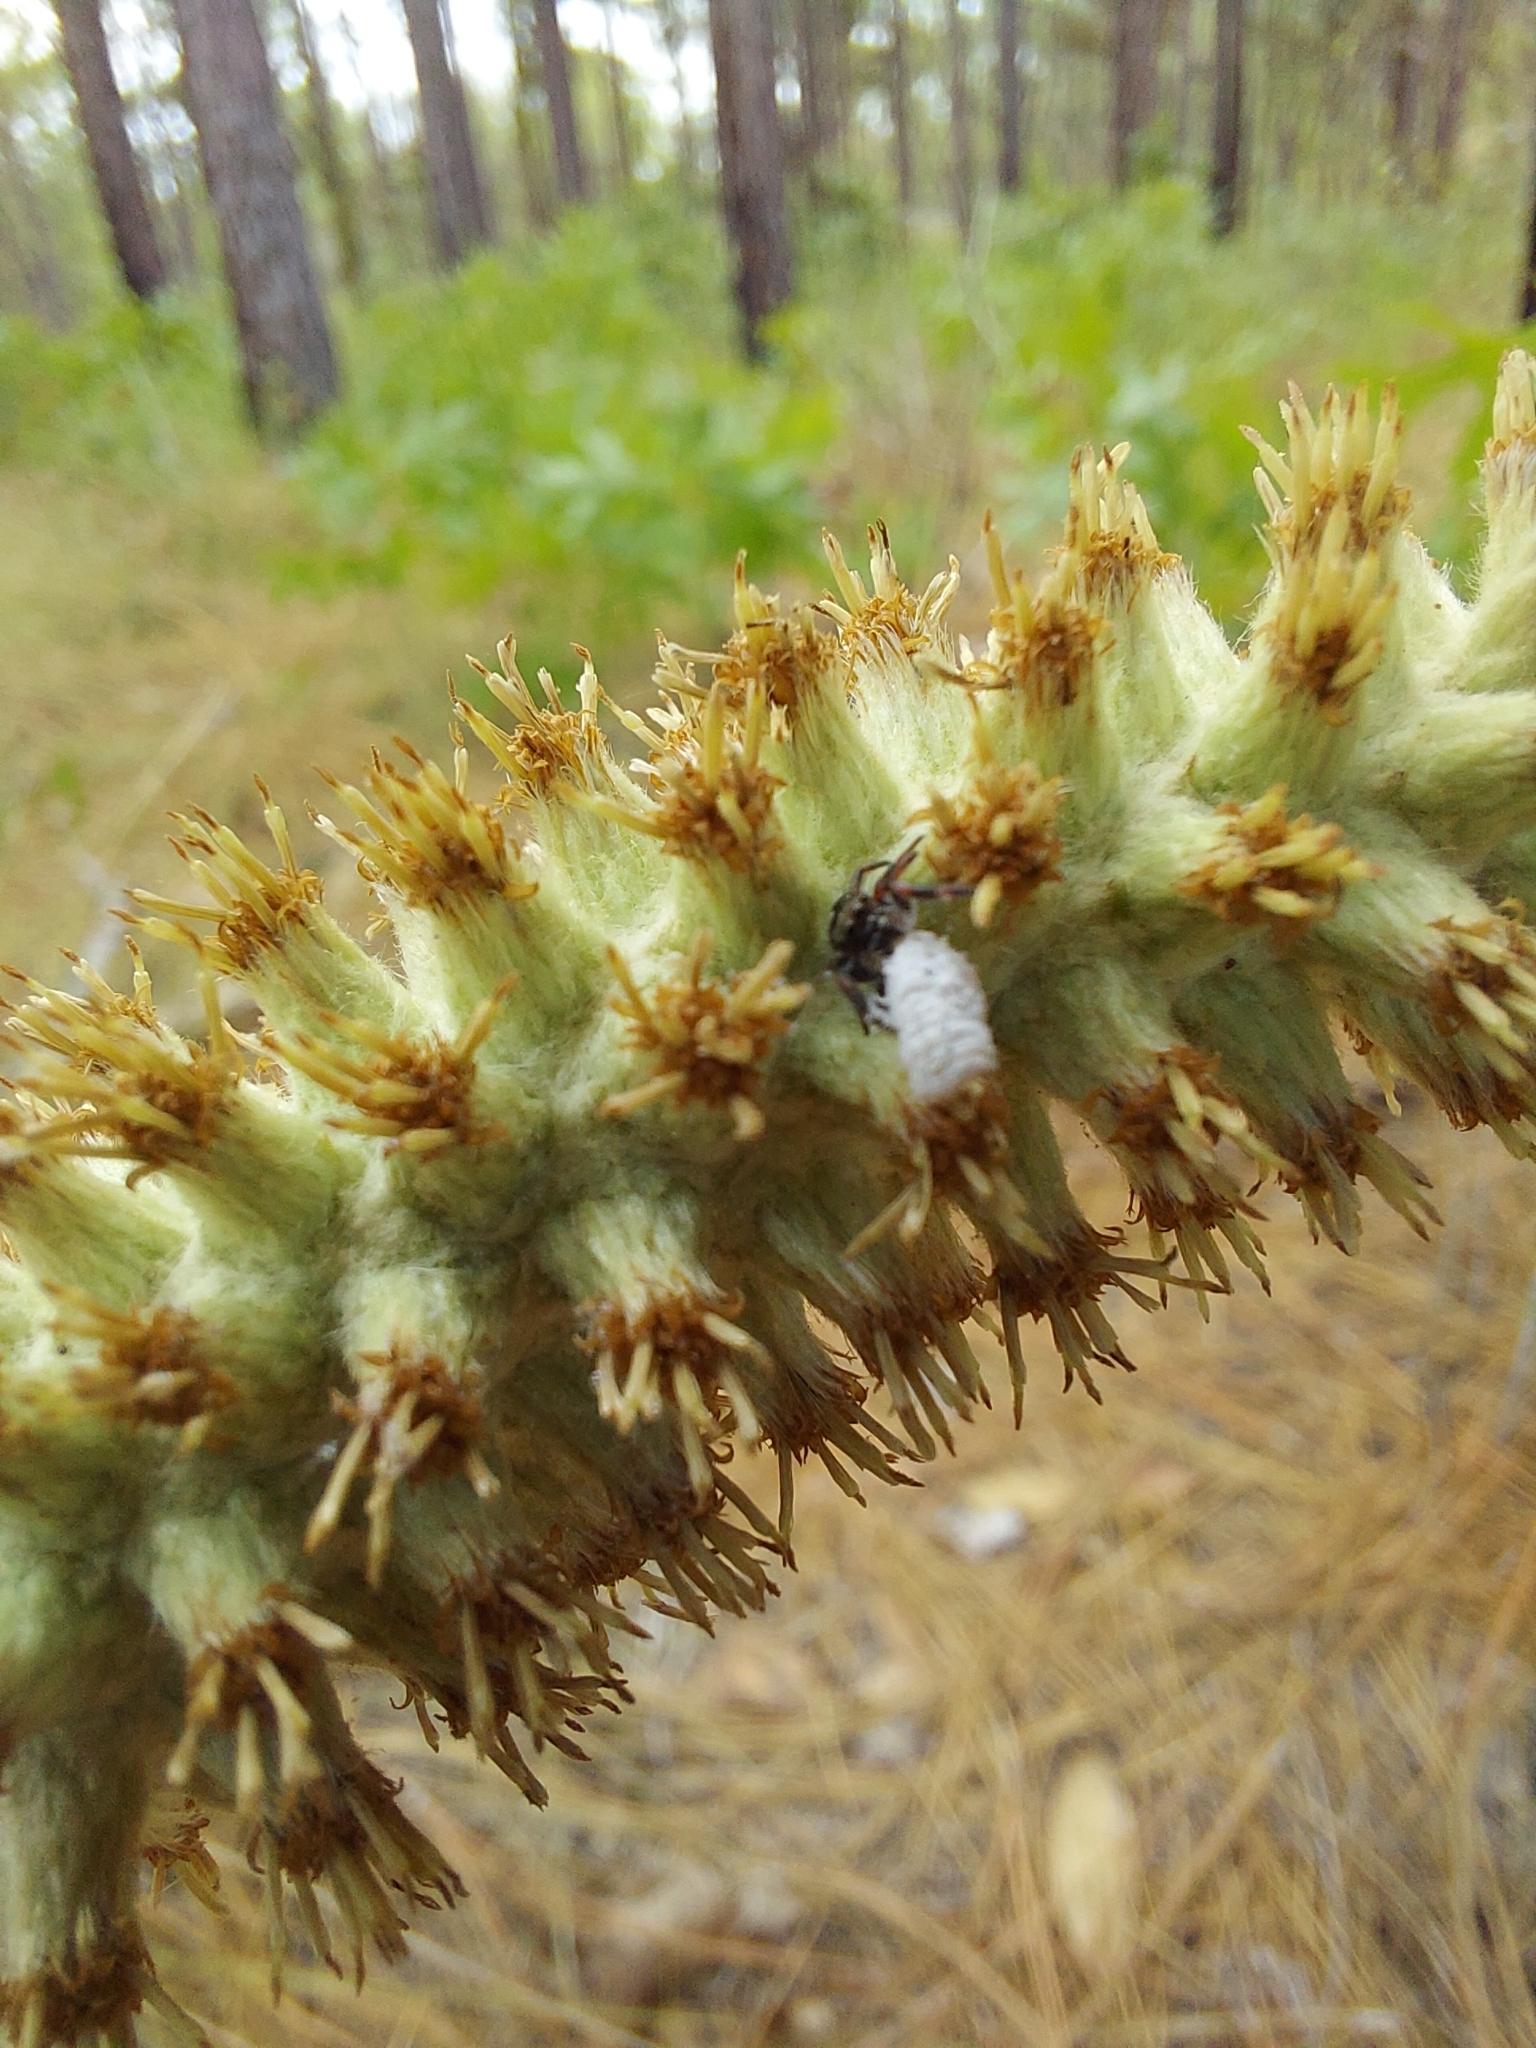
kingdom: Animalia
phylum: Arthropoda
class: Arachnida
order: Araneae
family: Salticidae
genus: Phidippus
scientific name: Phidippus
